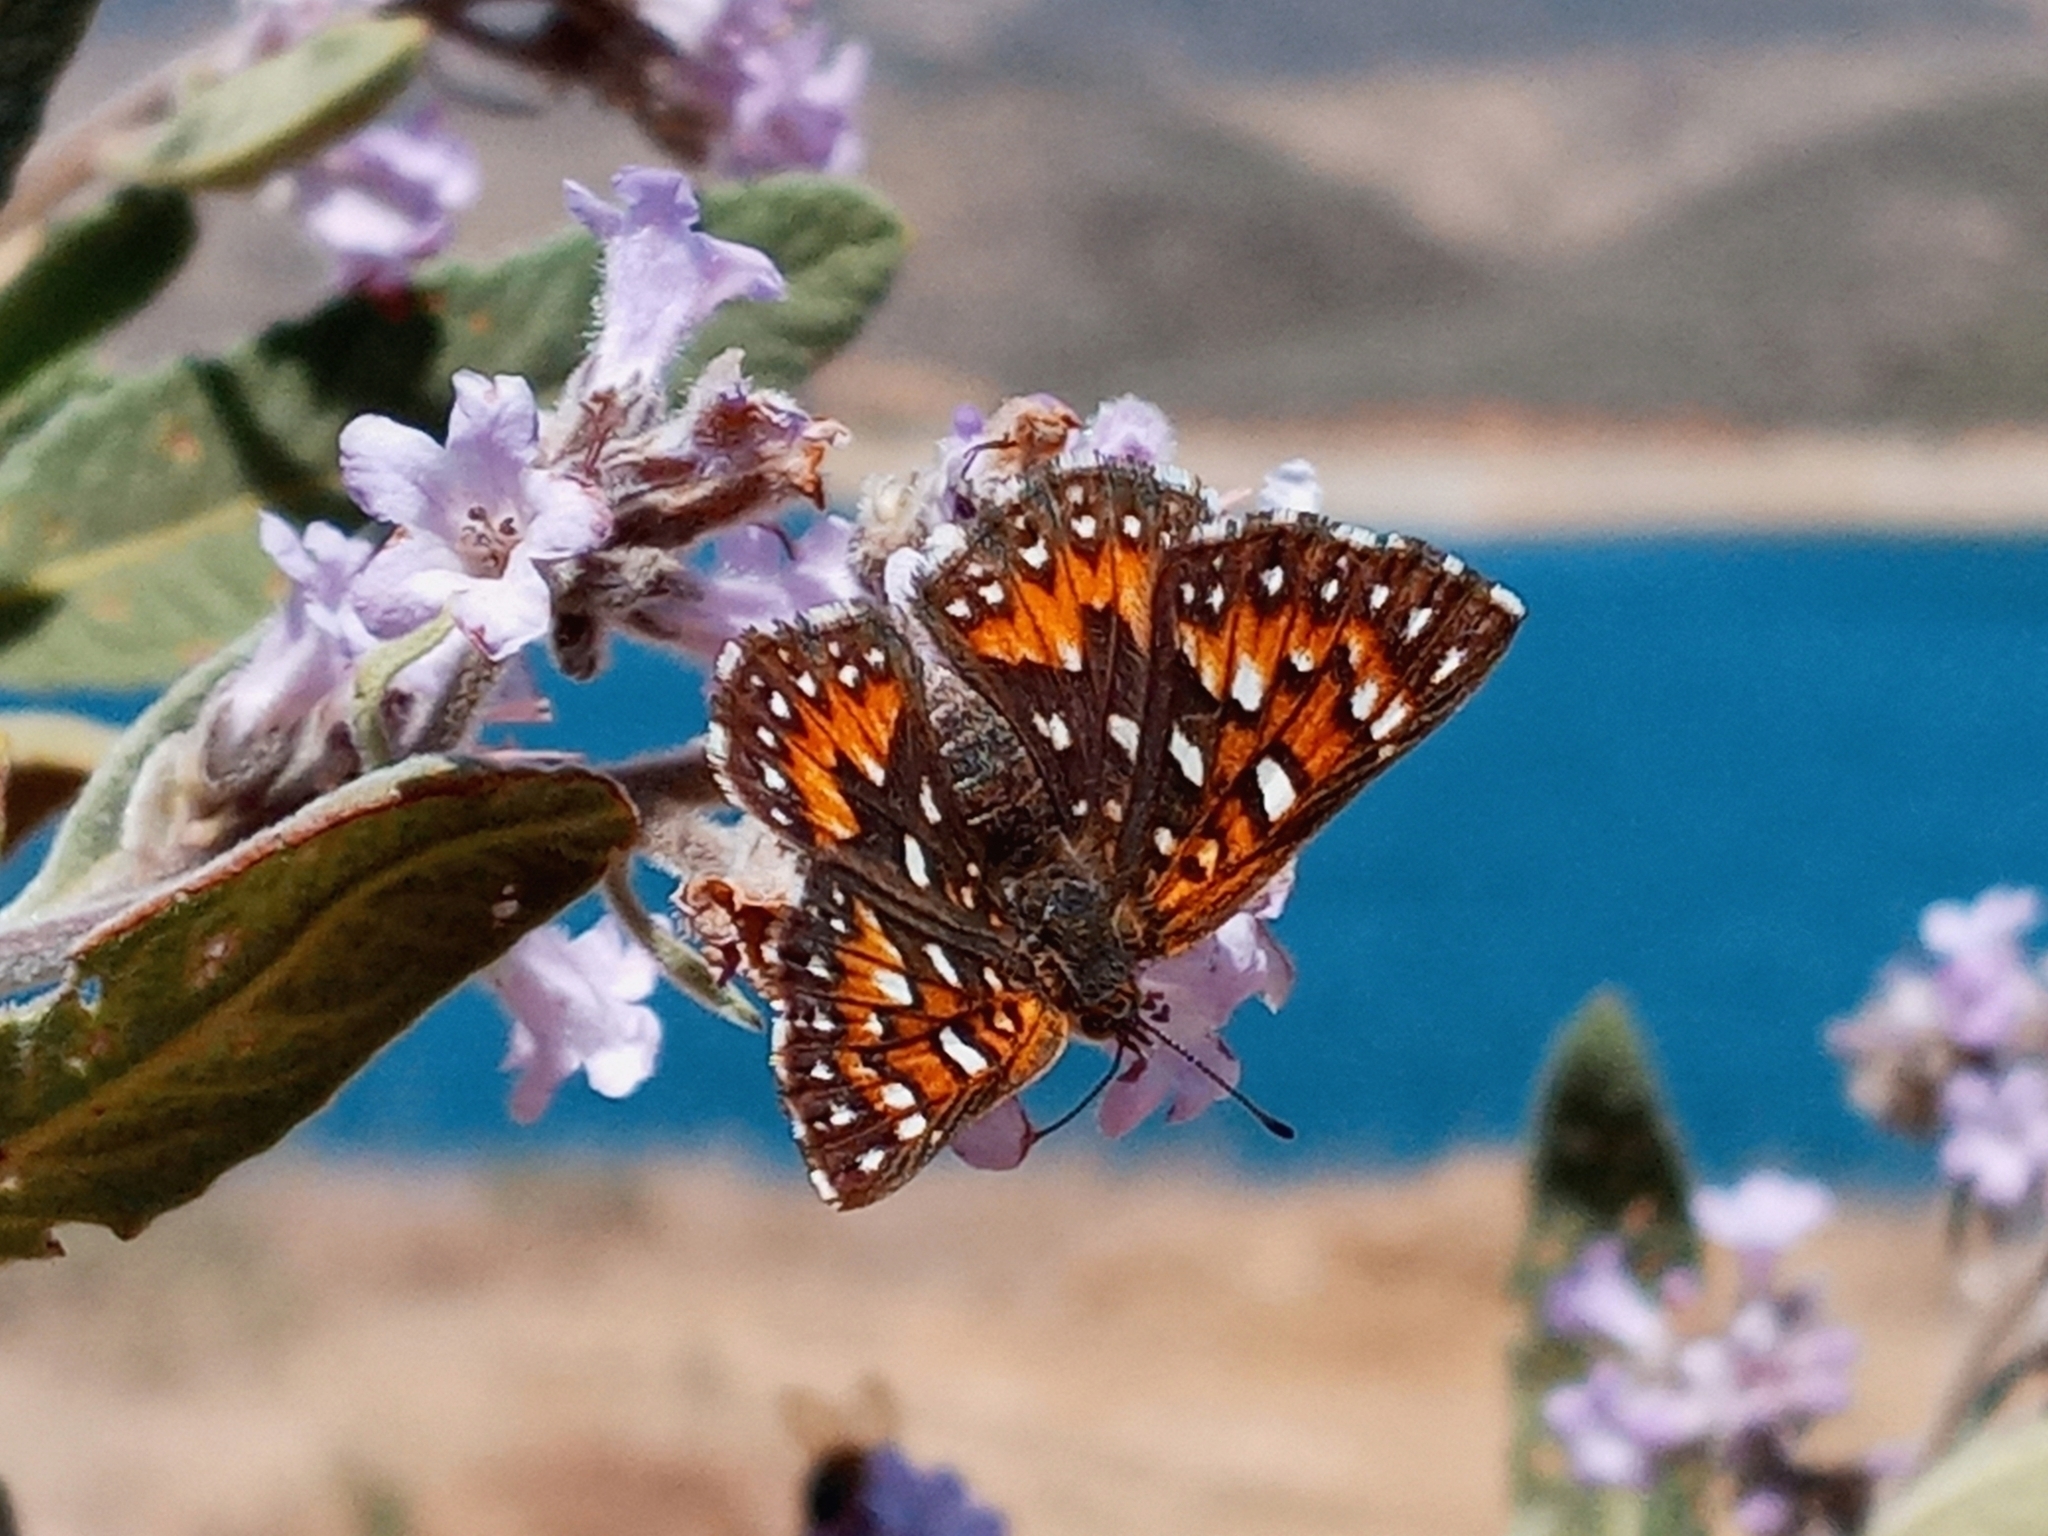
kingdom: Animalia
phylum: Arthropoda
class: Insecta
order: Lepidoptera
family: Riodinidae
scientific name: Riodinidae
